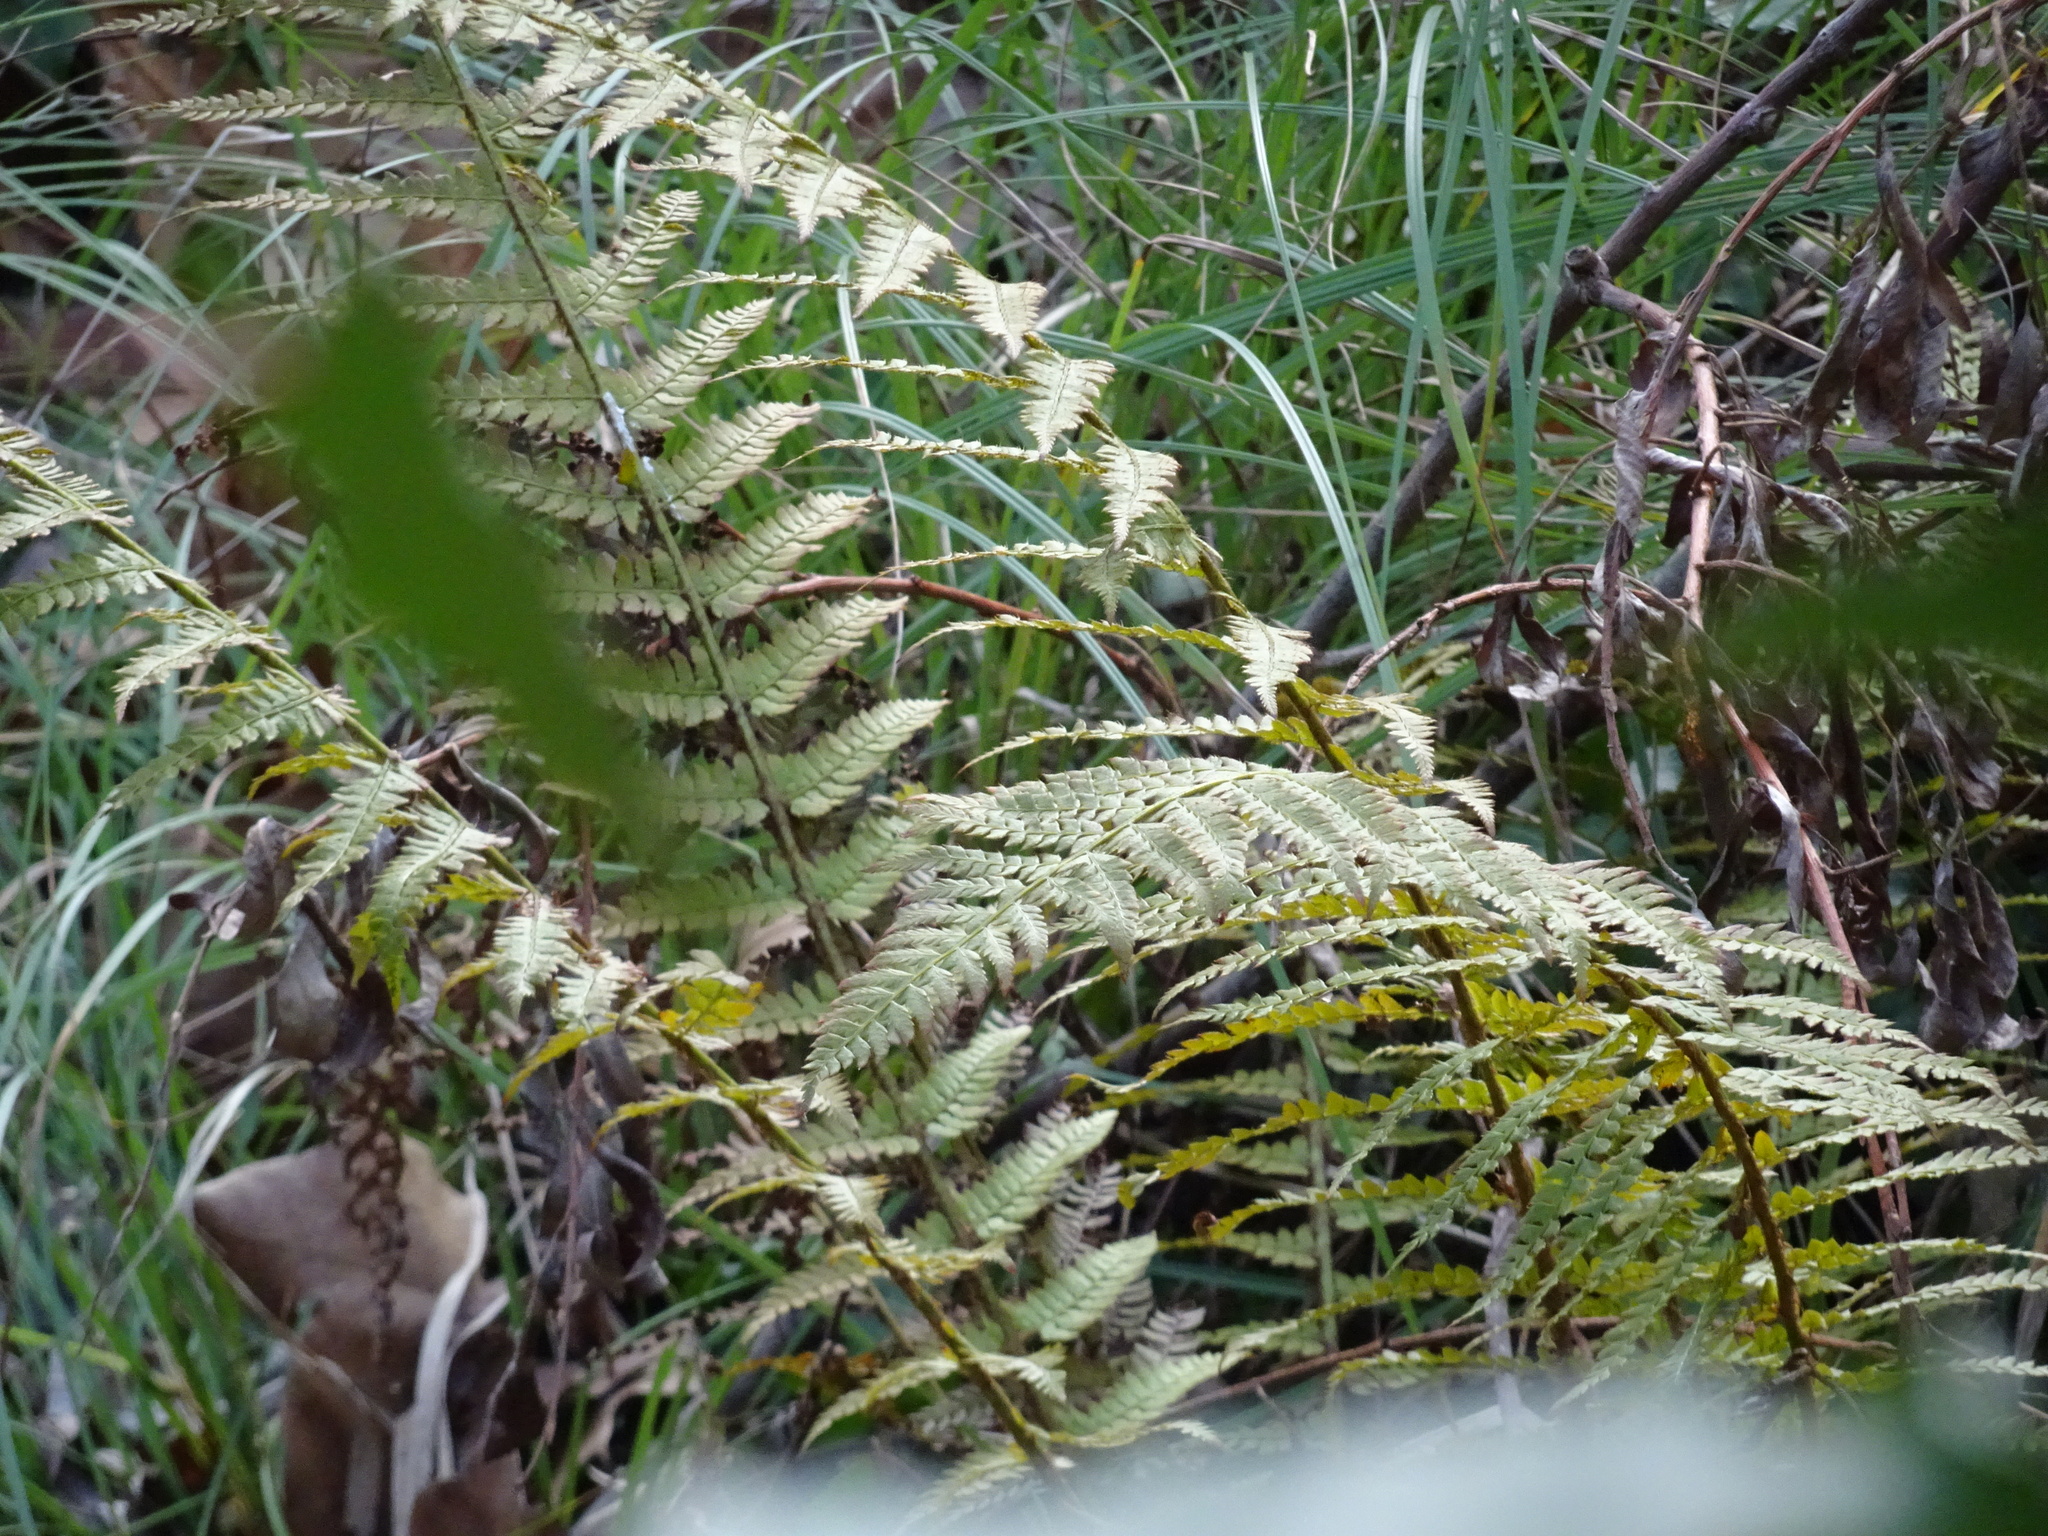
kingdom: Plantae
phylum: Tracheophyta
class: Polypodiopsida
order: Polypodiales
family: Dryopteridaceae
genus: Polystichum
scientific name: Polystichum setiferum
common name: Soft shield-fern
